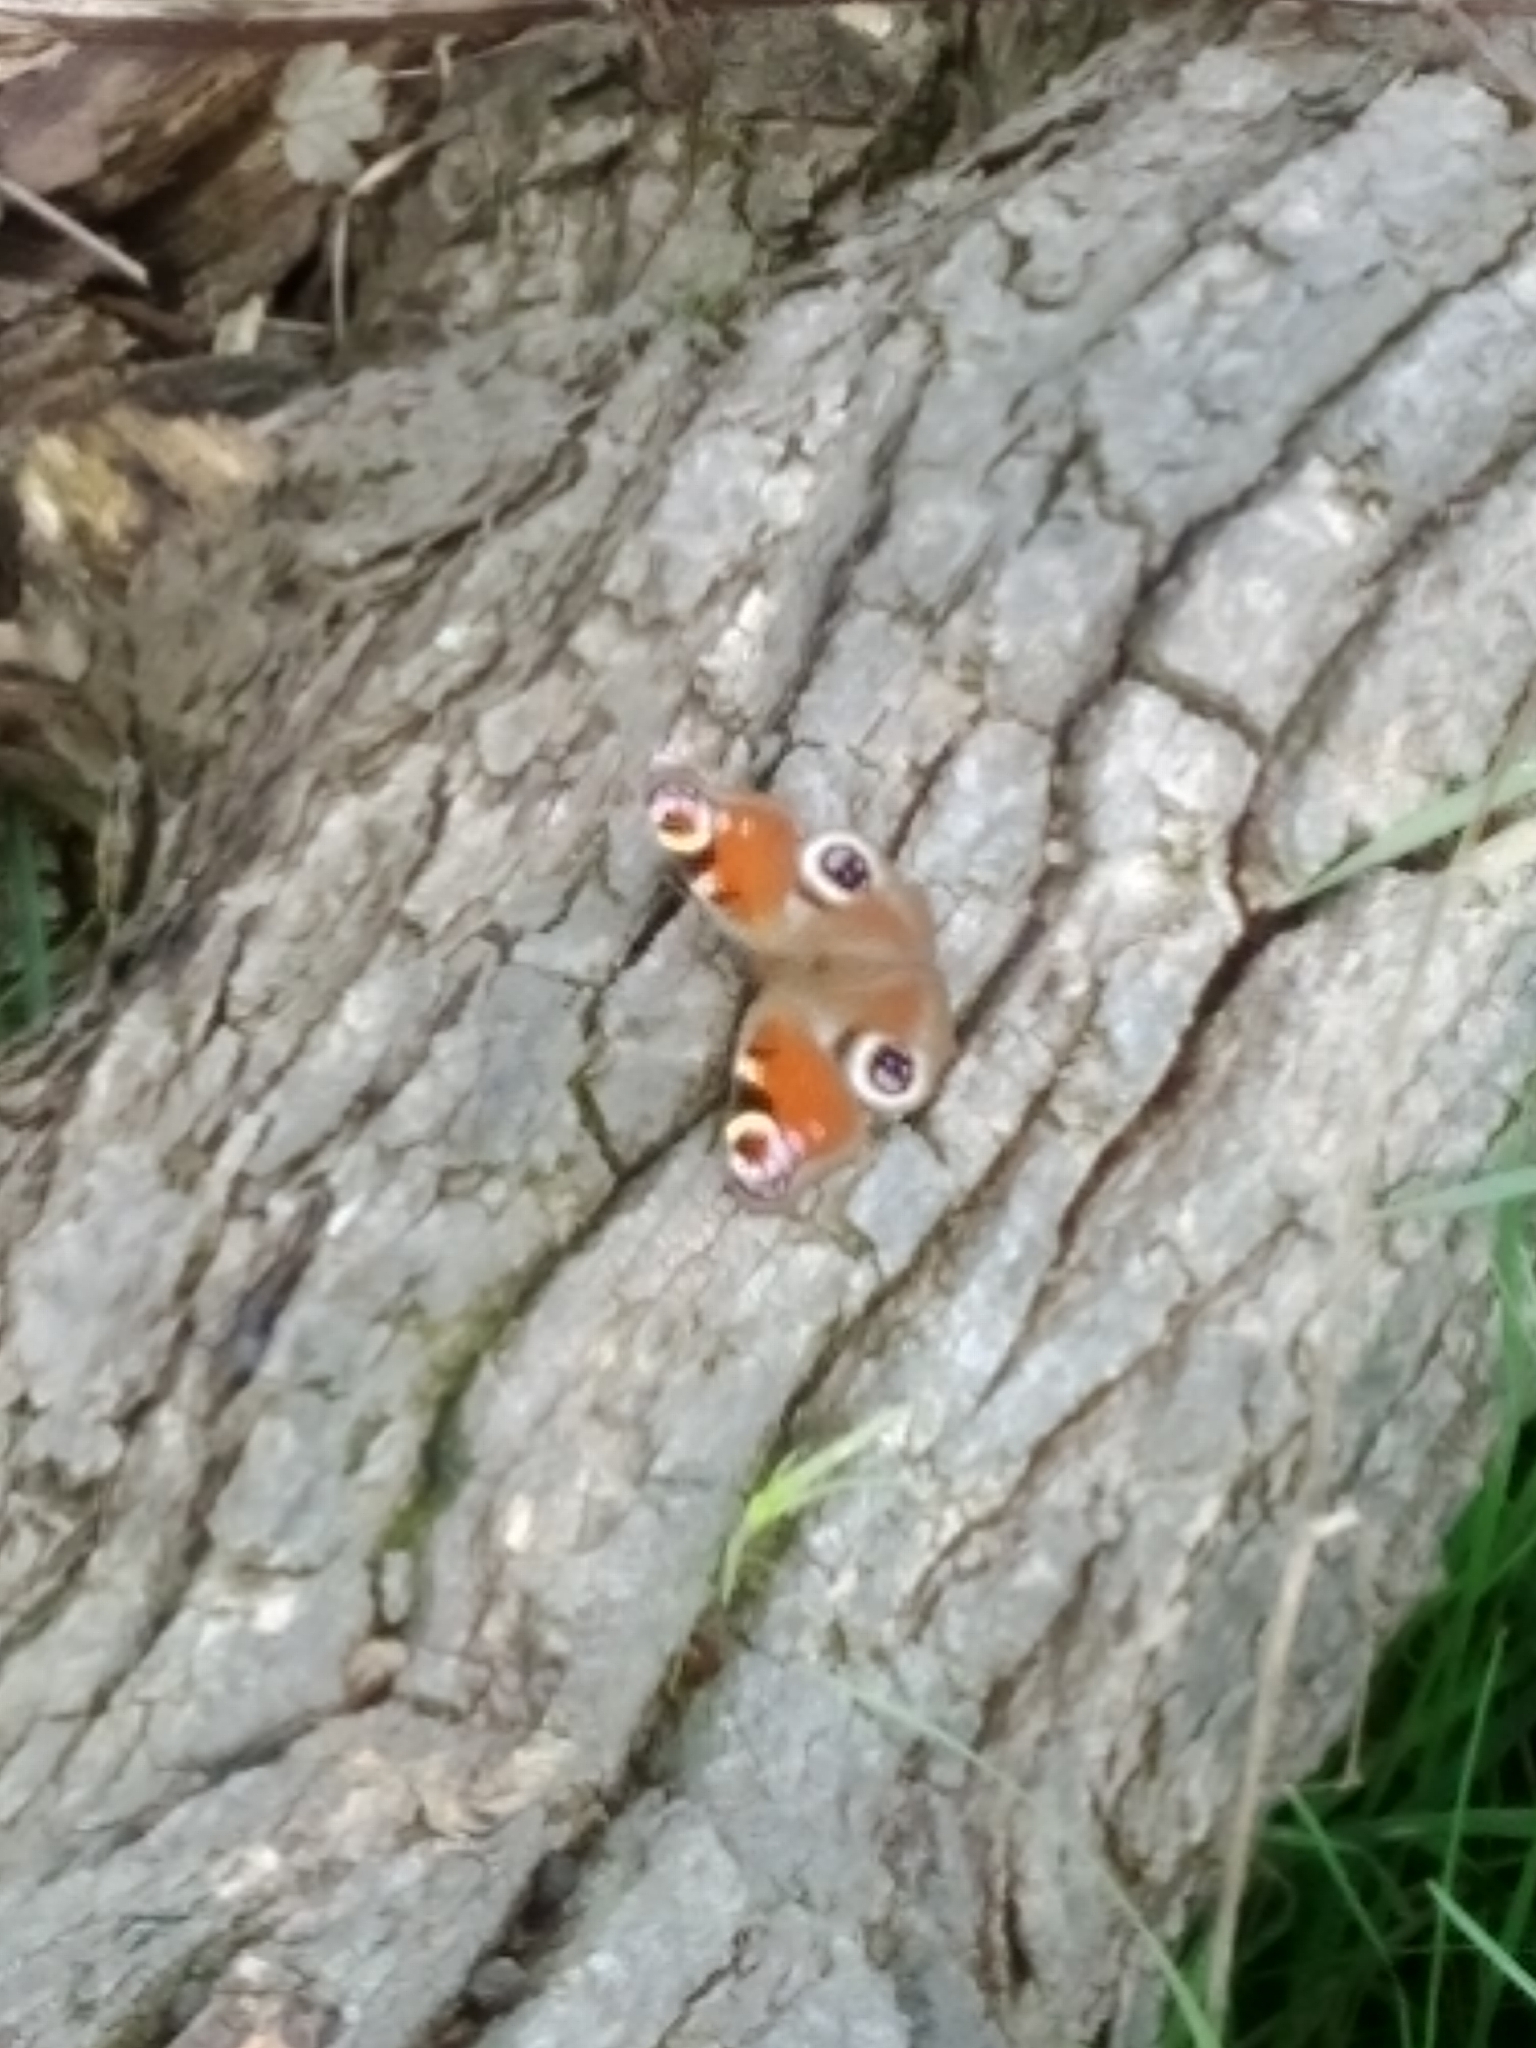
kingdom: Animalia
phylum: Arthropoda
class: Insecta
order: Lepidoptera
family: Nymphalidae
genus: Aglais
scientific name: Aglais io
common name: Peacock
